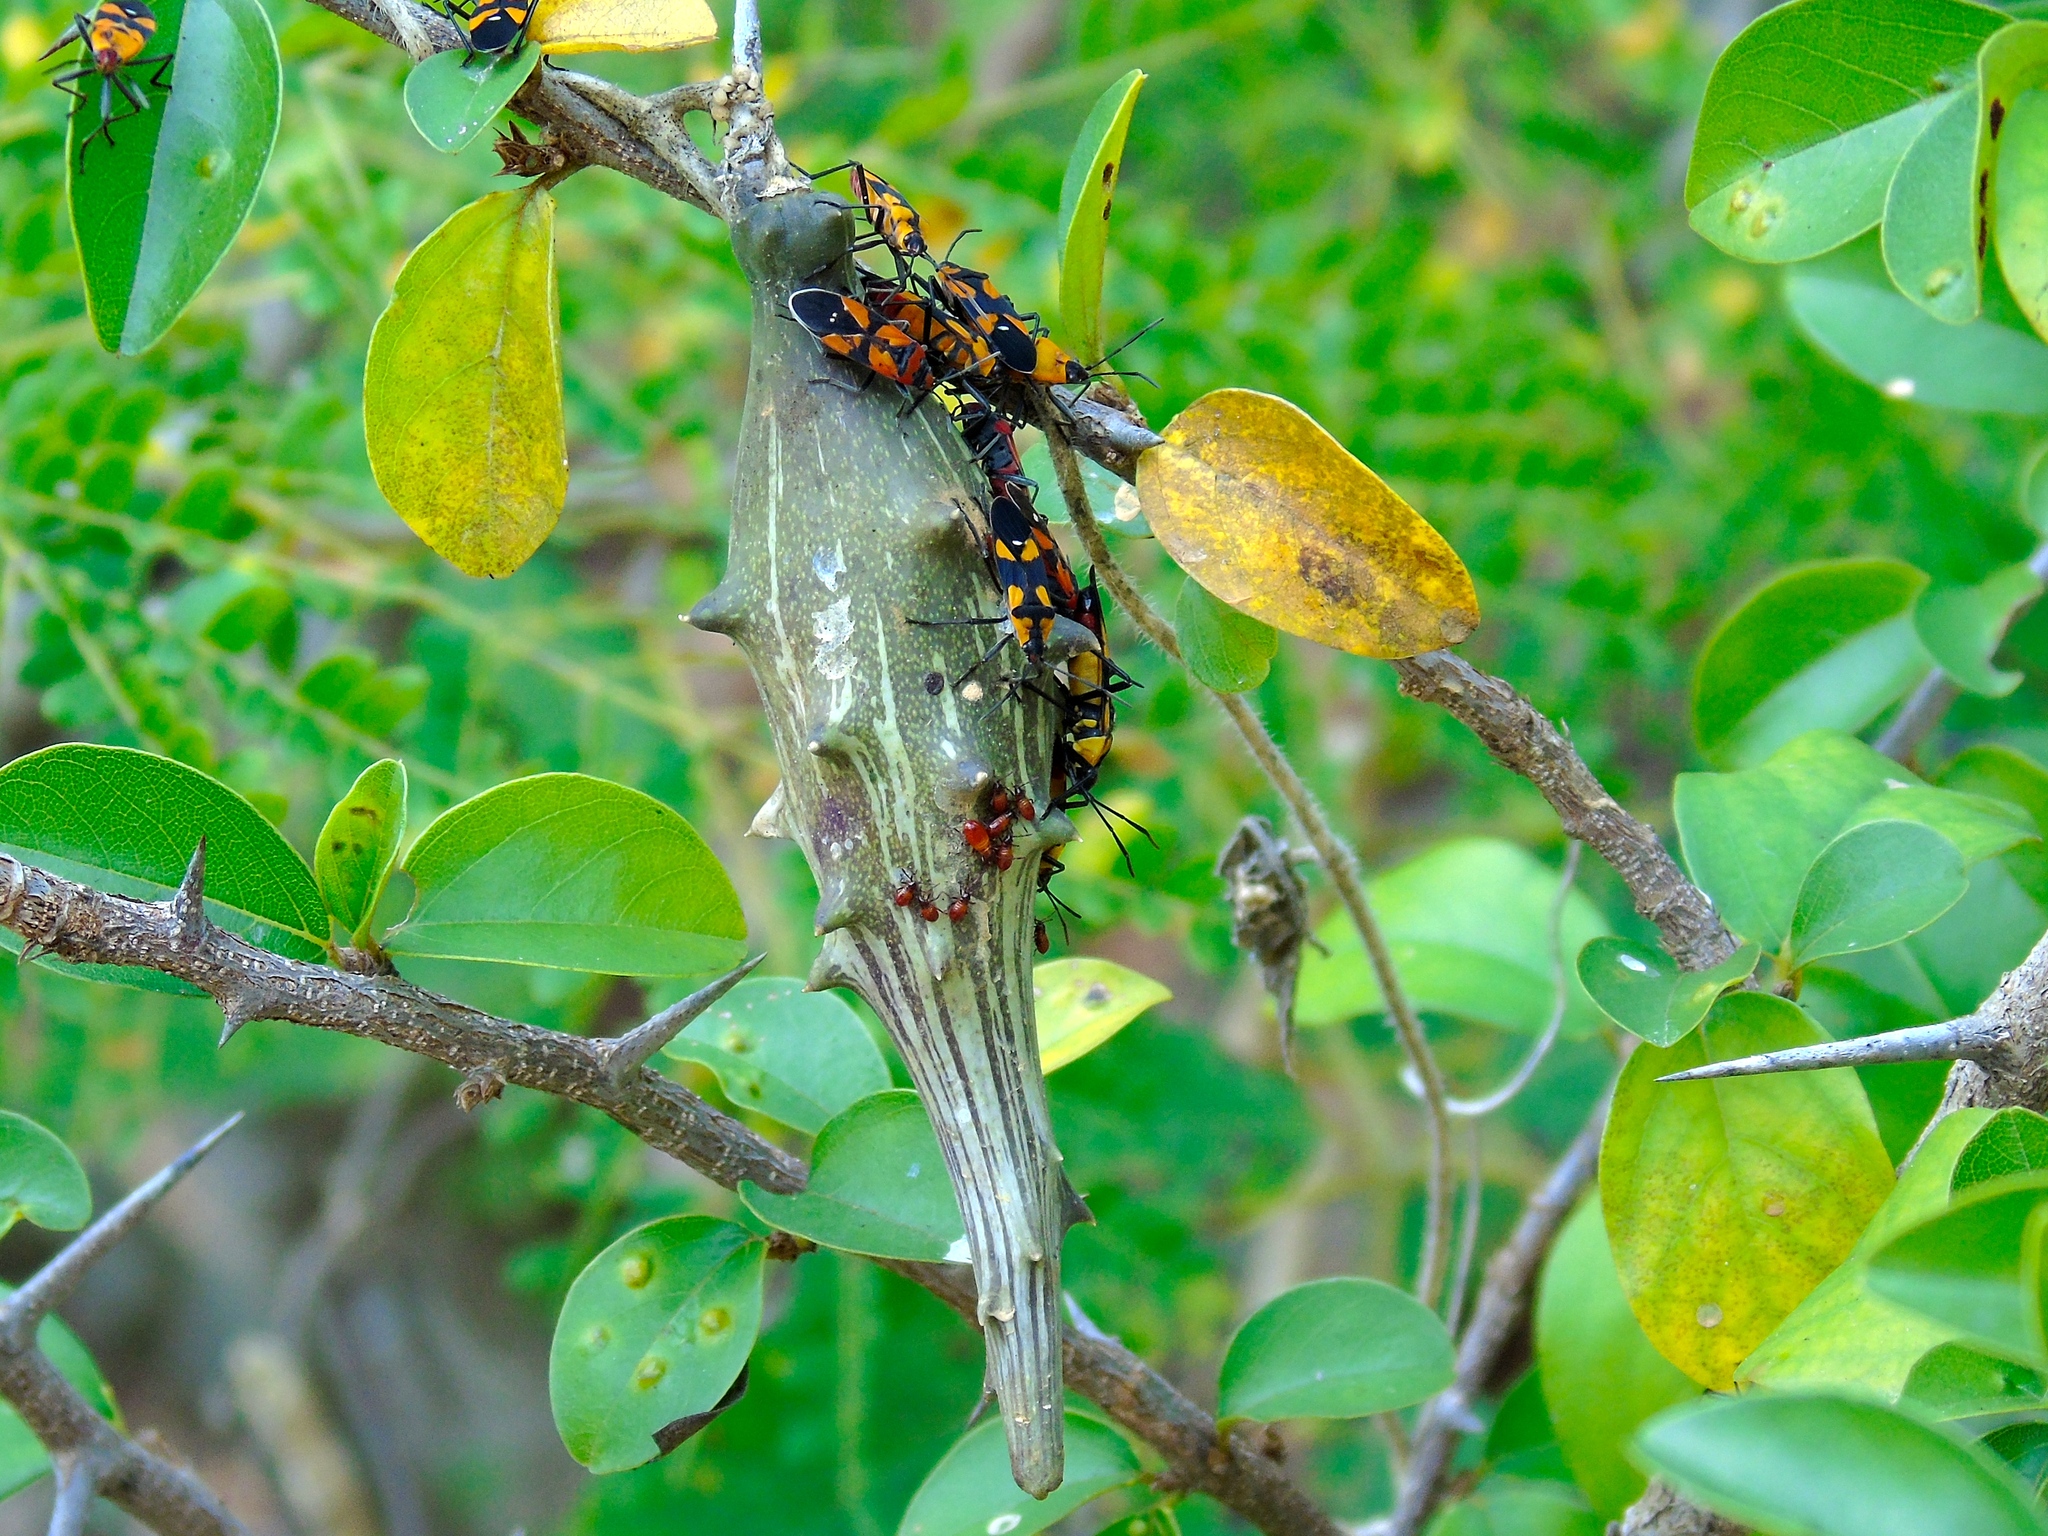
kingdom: Plantae
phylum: Tracheophyta
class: Magnoliopsida
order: Gentianales
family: Apocynaceae
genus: Dictyanthus
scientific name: Dictyanthus
